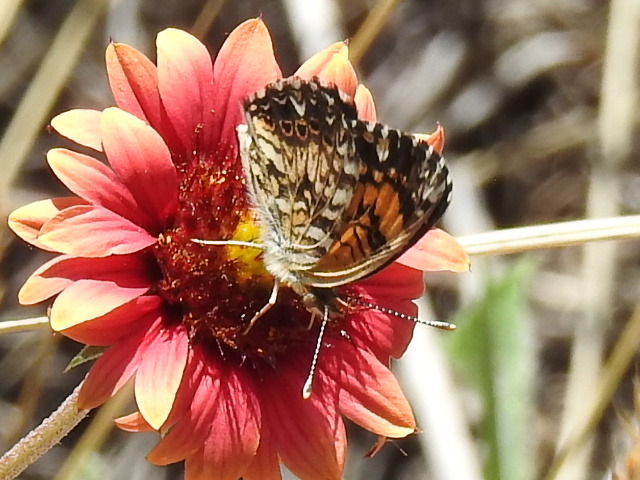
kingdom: Animalia
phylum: Arthropoda
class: Insecta
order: Lepidoptera
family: Nymphalidae
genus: Chlosyne
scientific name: Chlosyne gorgone
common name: Gorgone checkerspot
